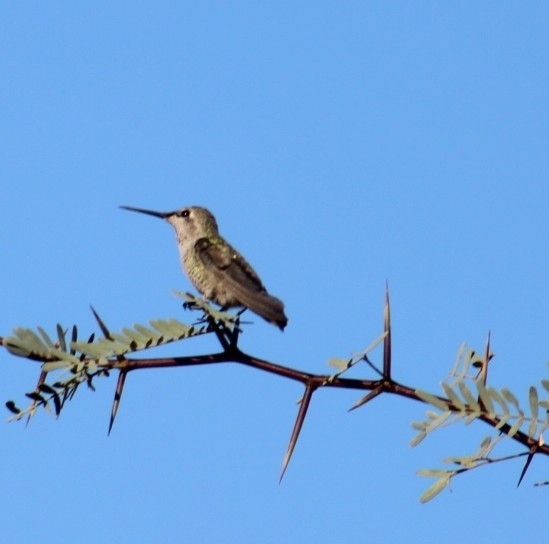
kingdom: Animalia
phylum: Chordata
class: Aves
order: Apodiformes
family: Trochilidae
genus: Calypte
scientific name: Calypte anna
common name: Anna's hummingbird
